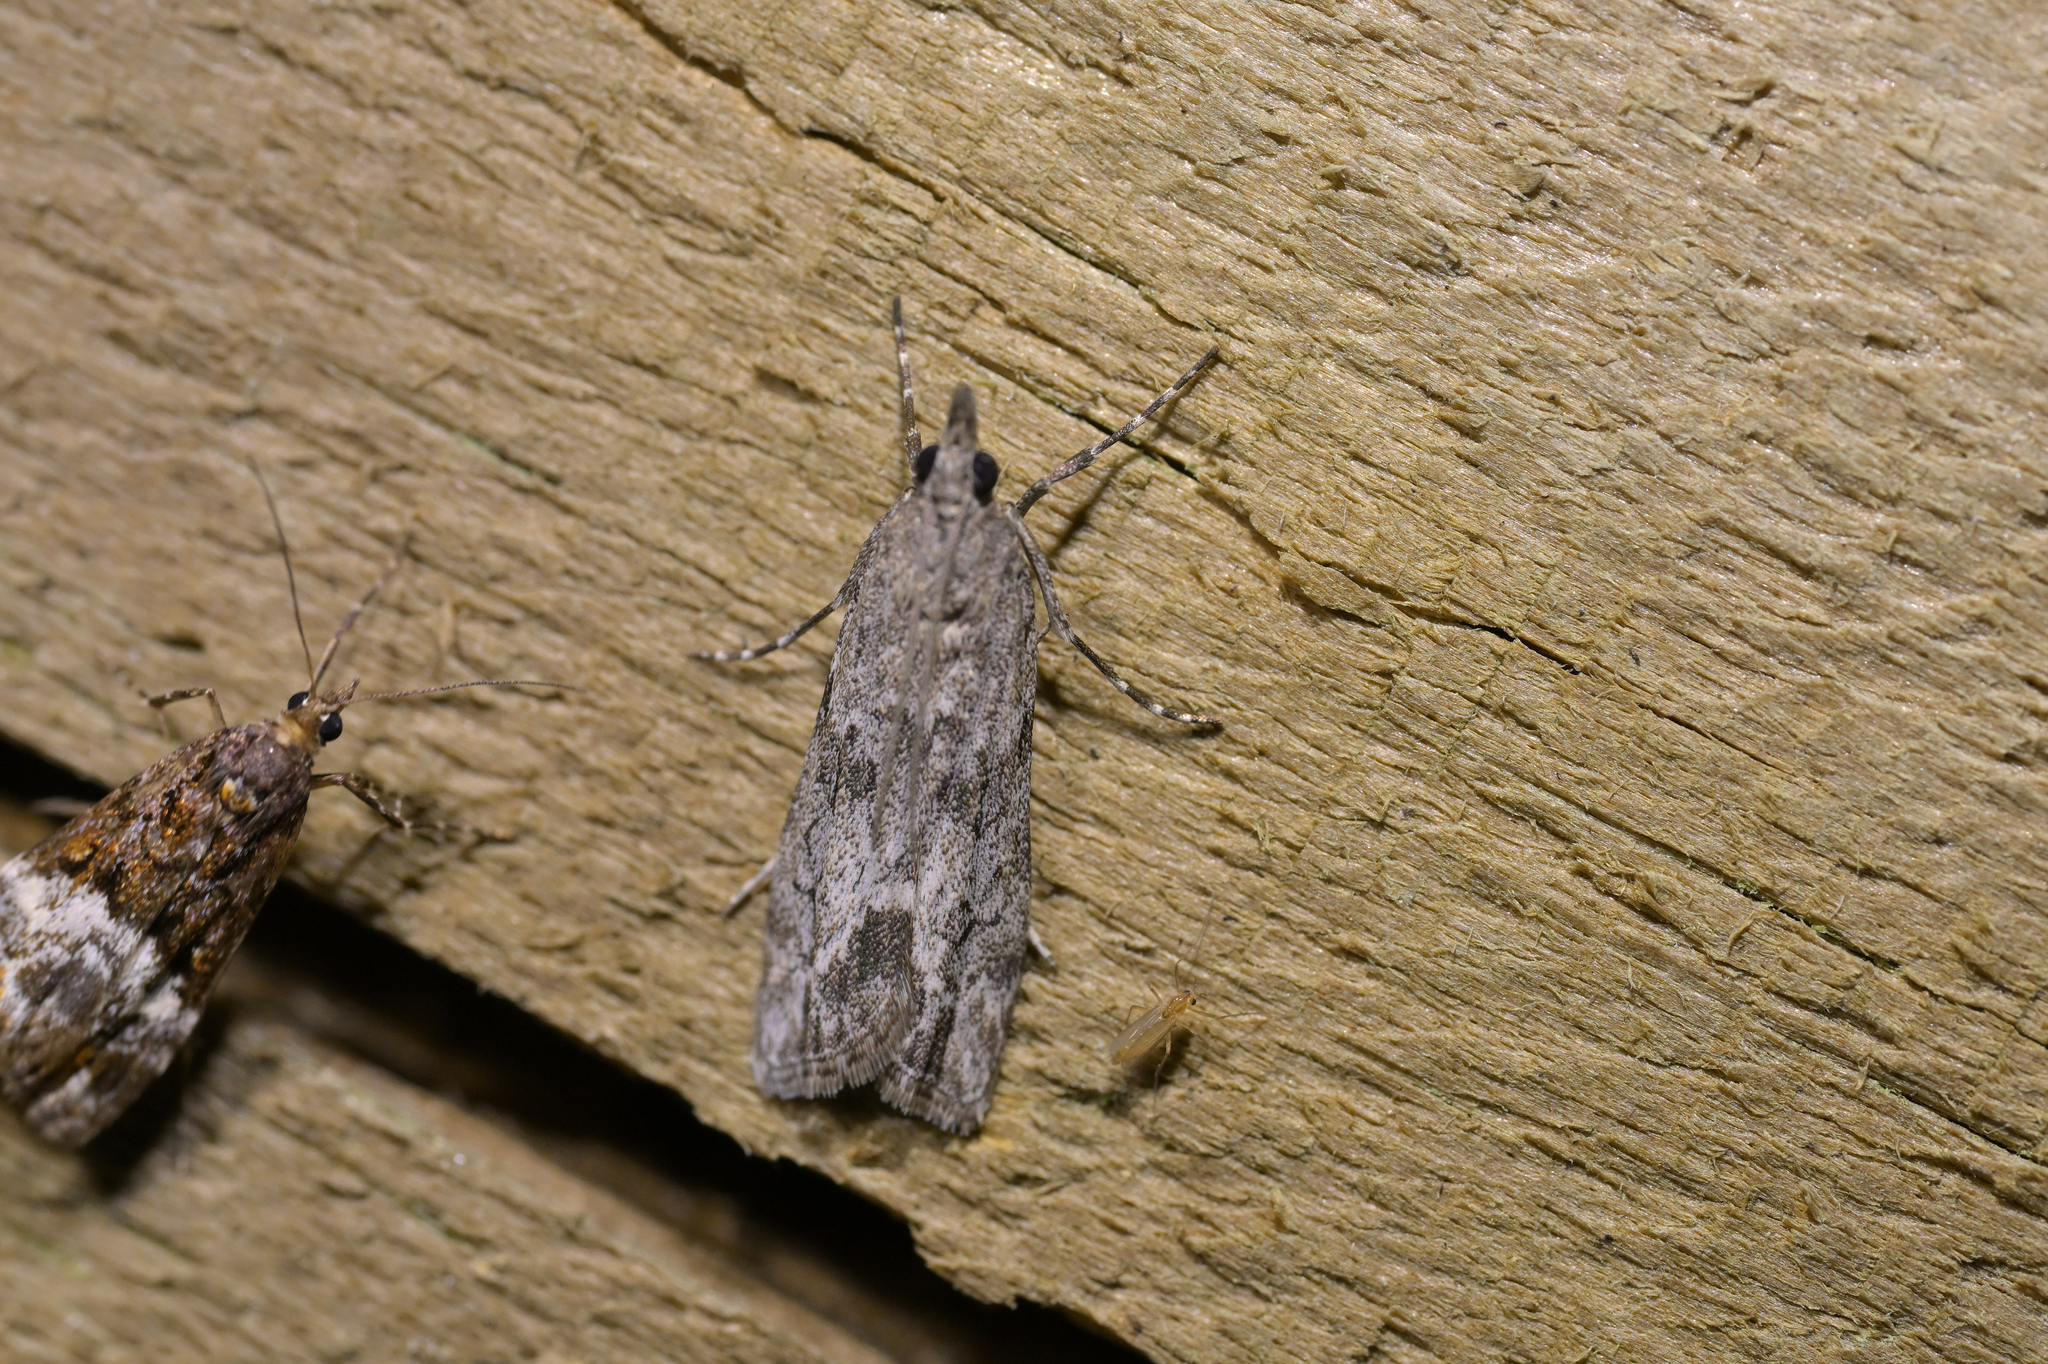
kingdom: Animalia
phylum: Arthropoda
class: Insecta
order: Lepidoptera
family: Crambidae
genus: Eudonia
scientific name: Eudonia rakaiensis
